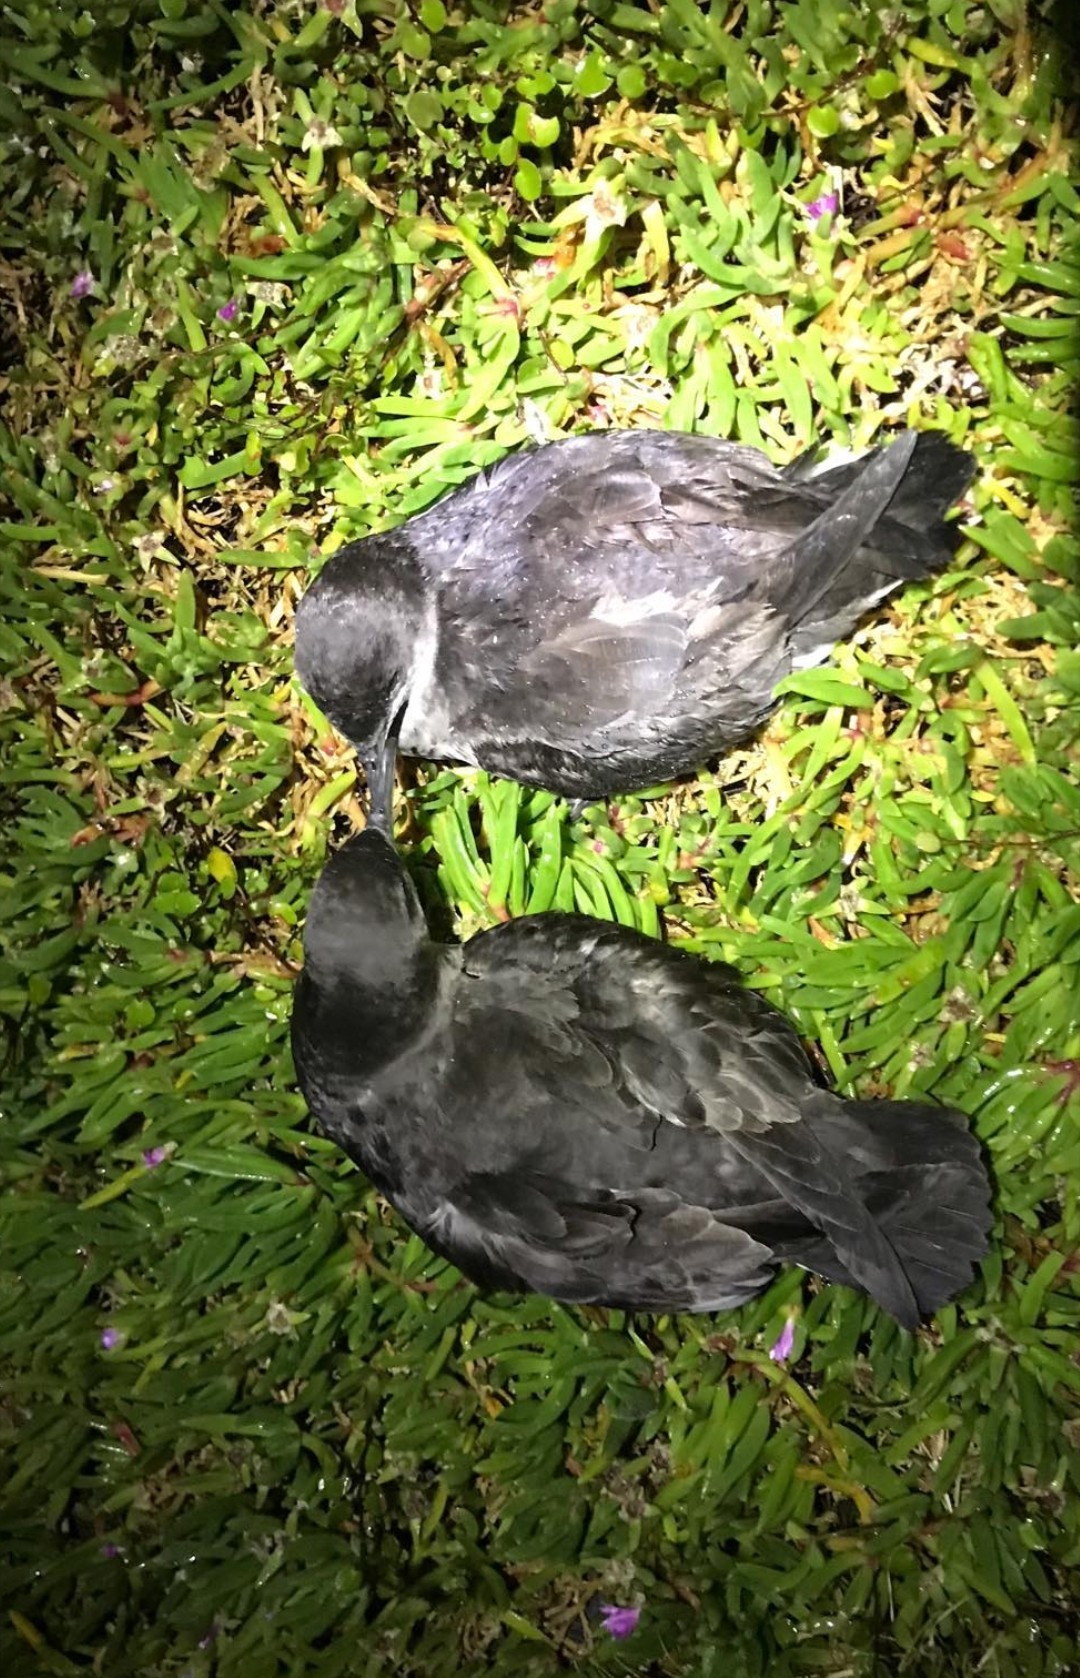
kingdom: Animalia
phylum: Chordata
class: Aves
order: Procellariiformes
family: Procellariidae
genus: Puffinus
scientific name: Puffinus gavia
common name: Fluttering shearwater
